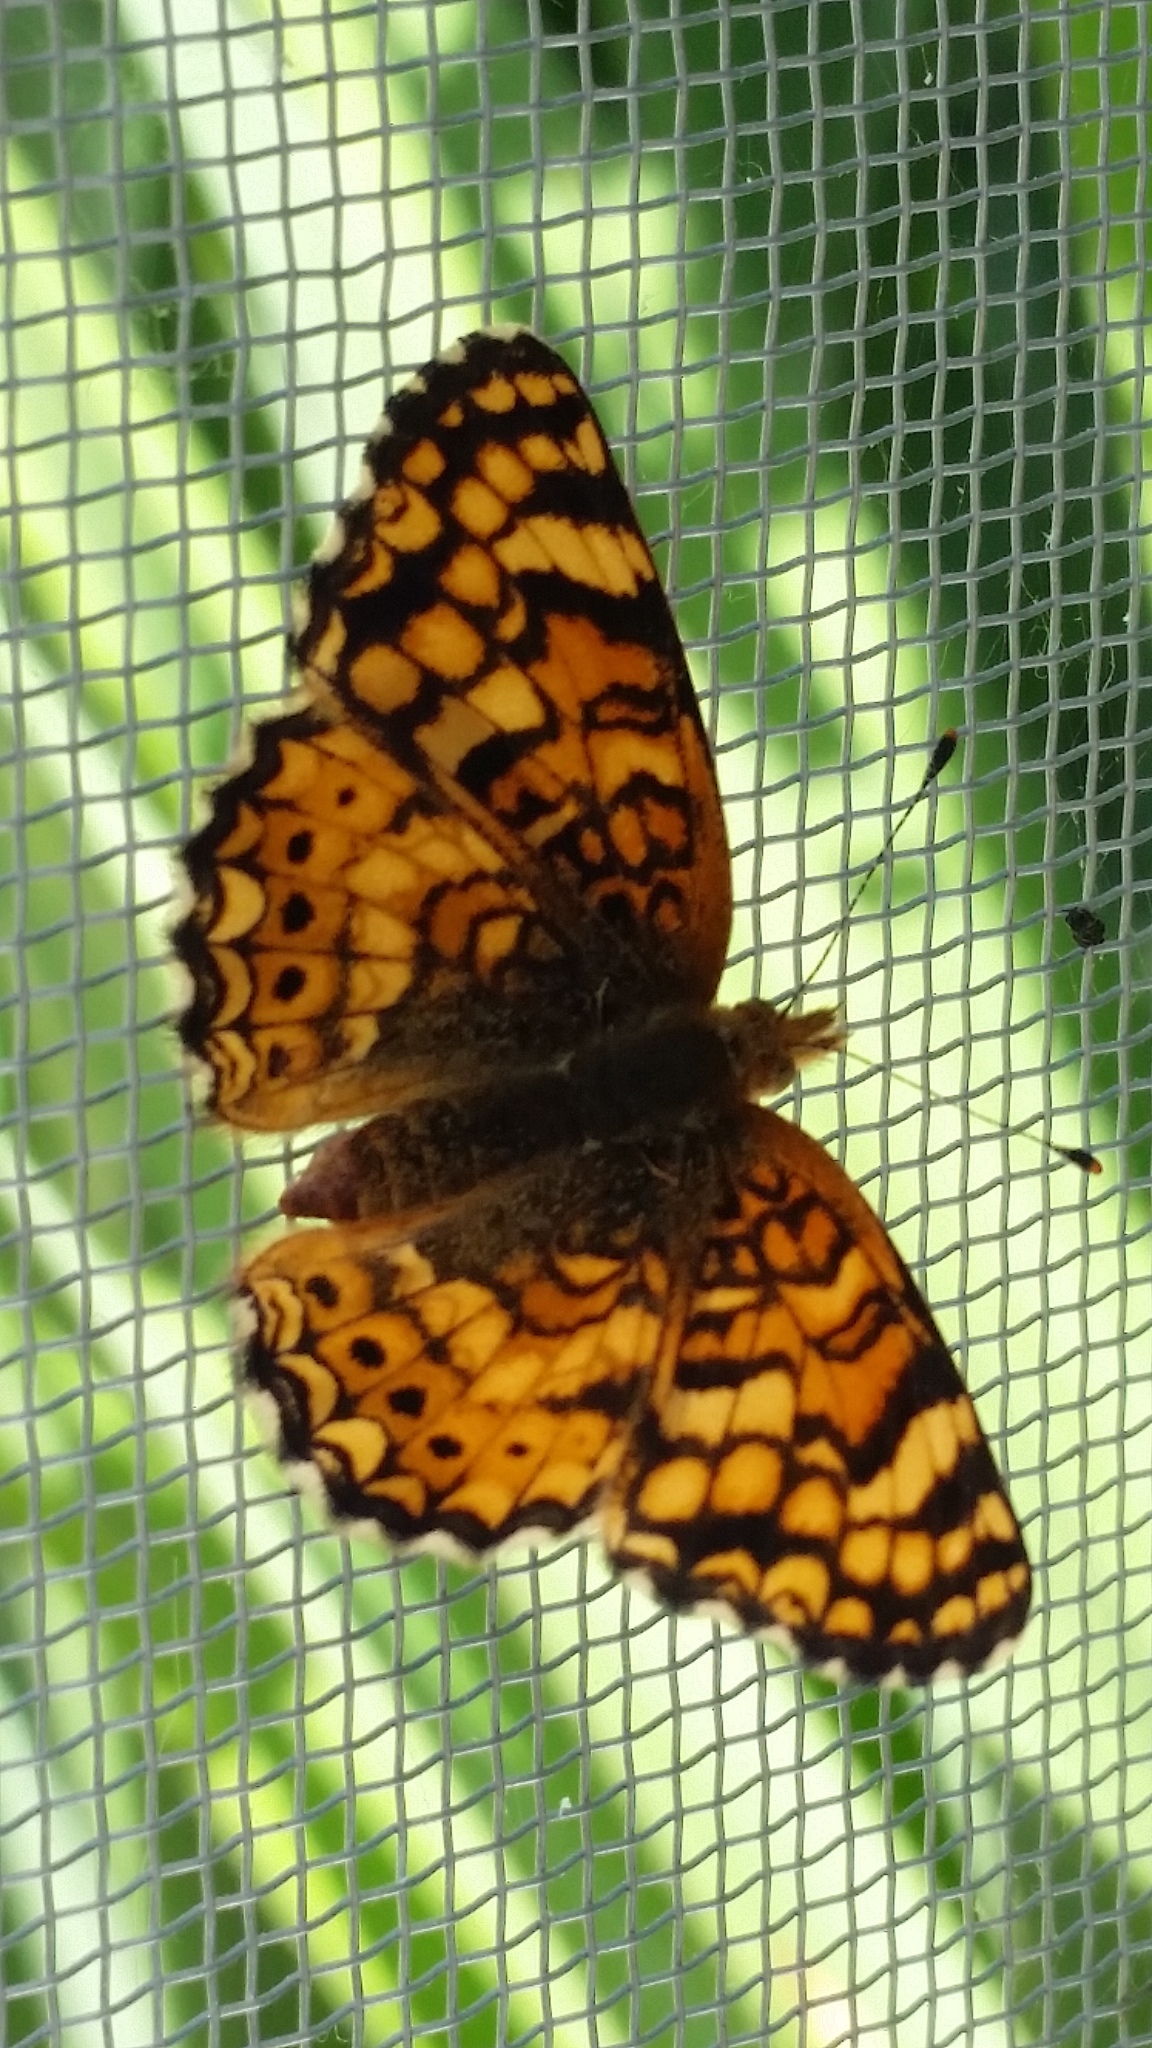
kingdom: Animalia
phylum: Arthropoda
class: Insecta
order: Lepidoptera
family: Nymphalidae
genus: Eresia
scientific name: Eresia aveyrona
